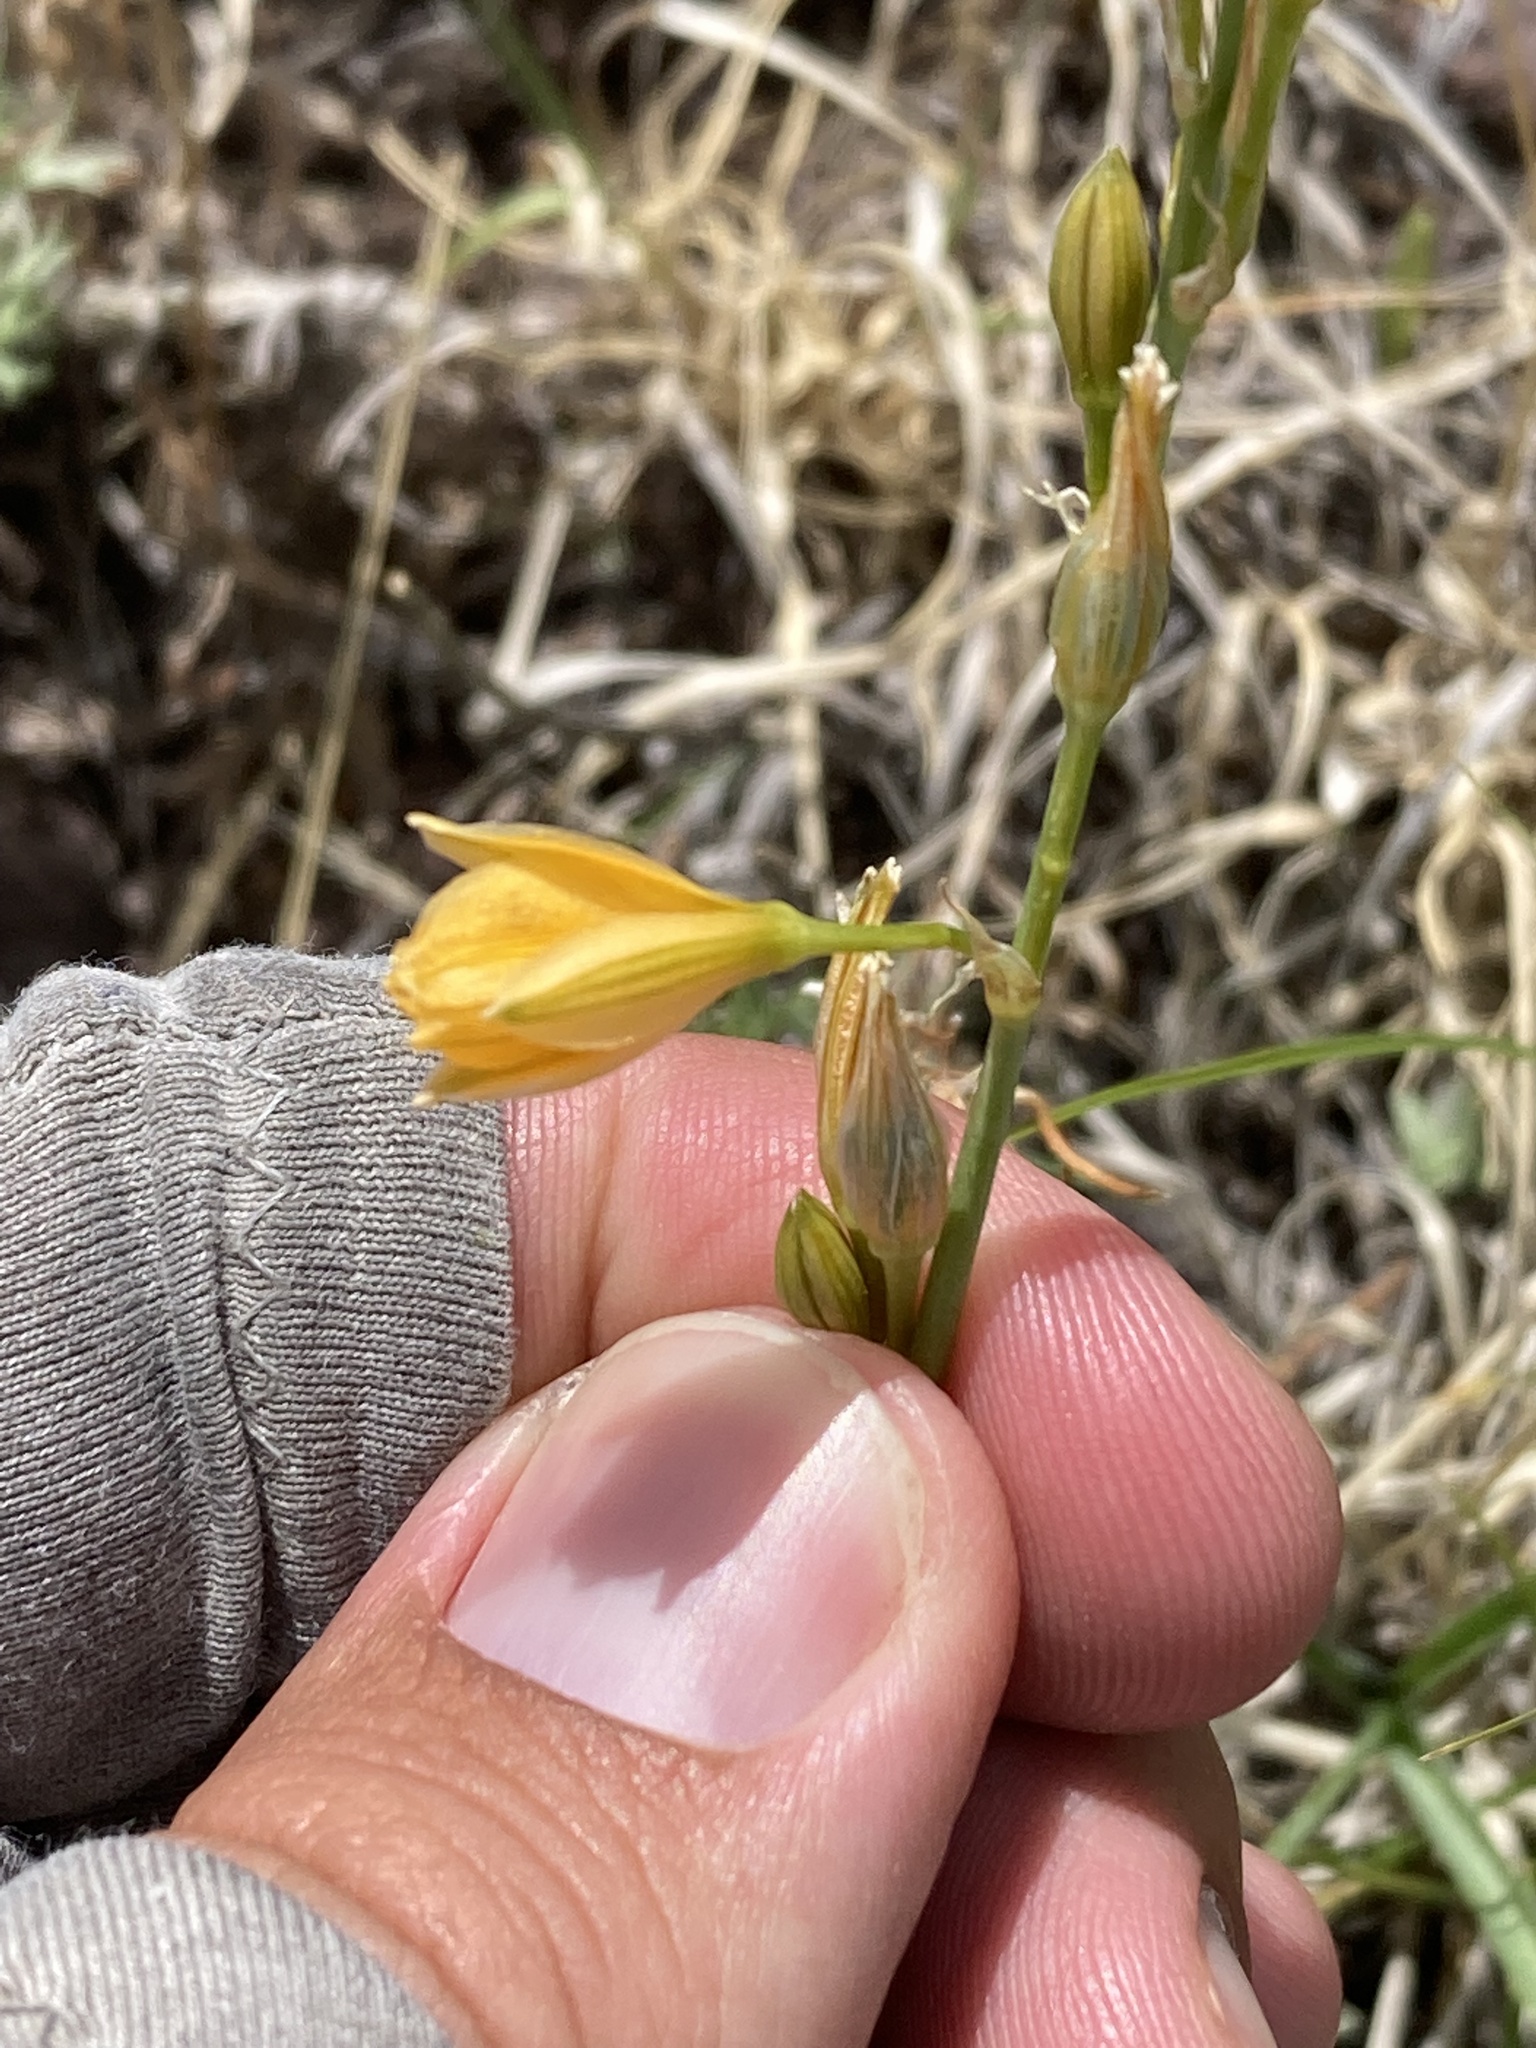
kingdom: Plantae
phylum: Tracheophyta
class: Liliopsida
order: Asparagales
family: Asparagaceae
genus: Echeandia
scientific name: Echeandia flavescens
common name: Amberlily
